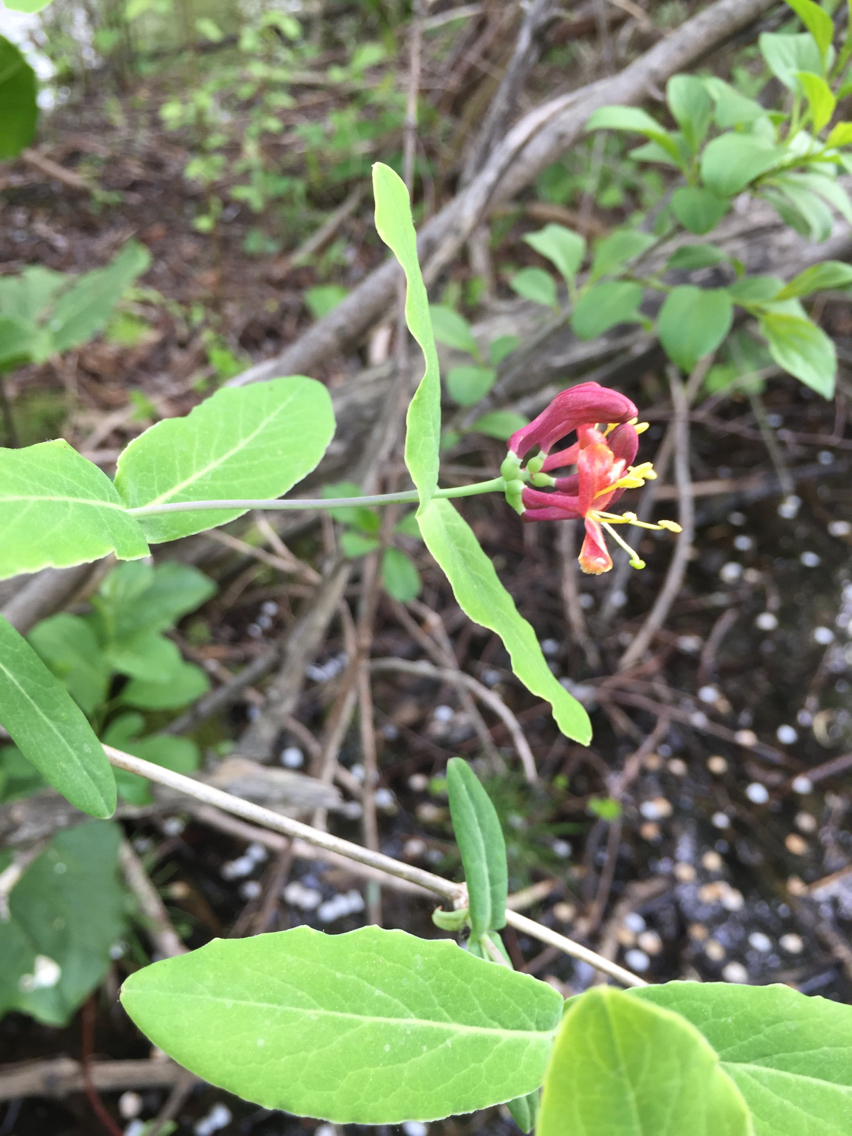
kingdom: Plantae
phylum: Tracheophyta
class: Magnoliopsida
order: Dipsacales
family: Caprifoliaceae
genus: Lonicera
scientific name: Lonicera dioica
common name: Limber honeysuckle
